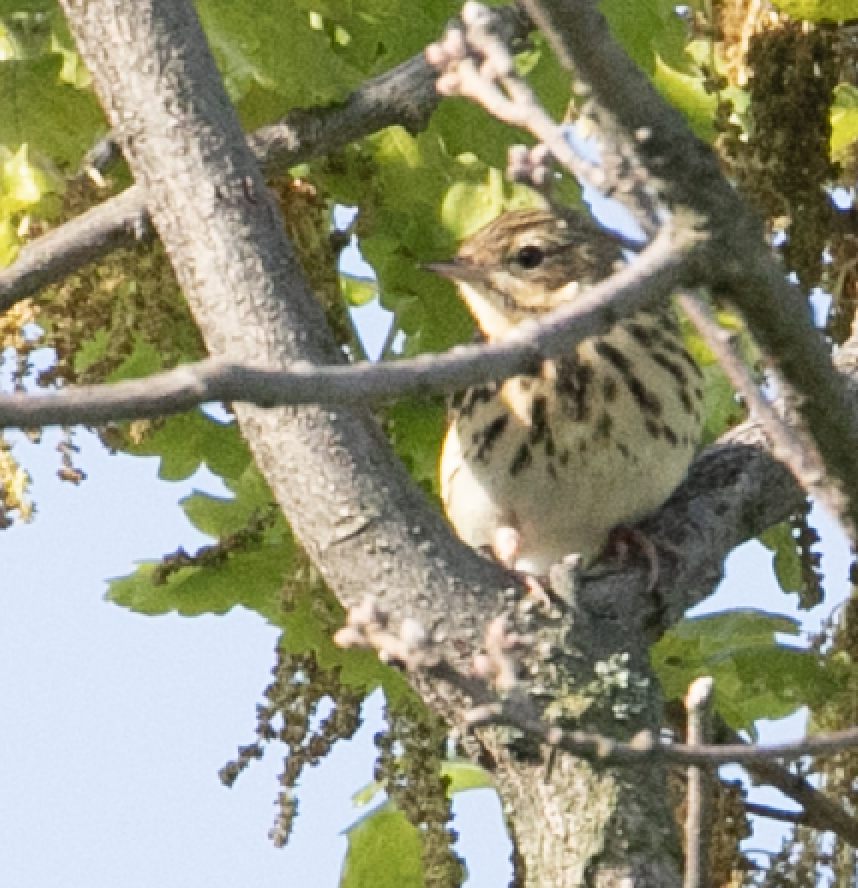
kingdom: Animalia
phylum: Chordata
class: Aves
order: Passeriformes
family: Motacillidae
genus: Anthus
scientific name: Anthus trivialis
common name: Tree pipit
